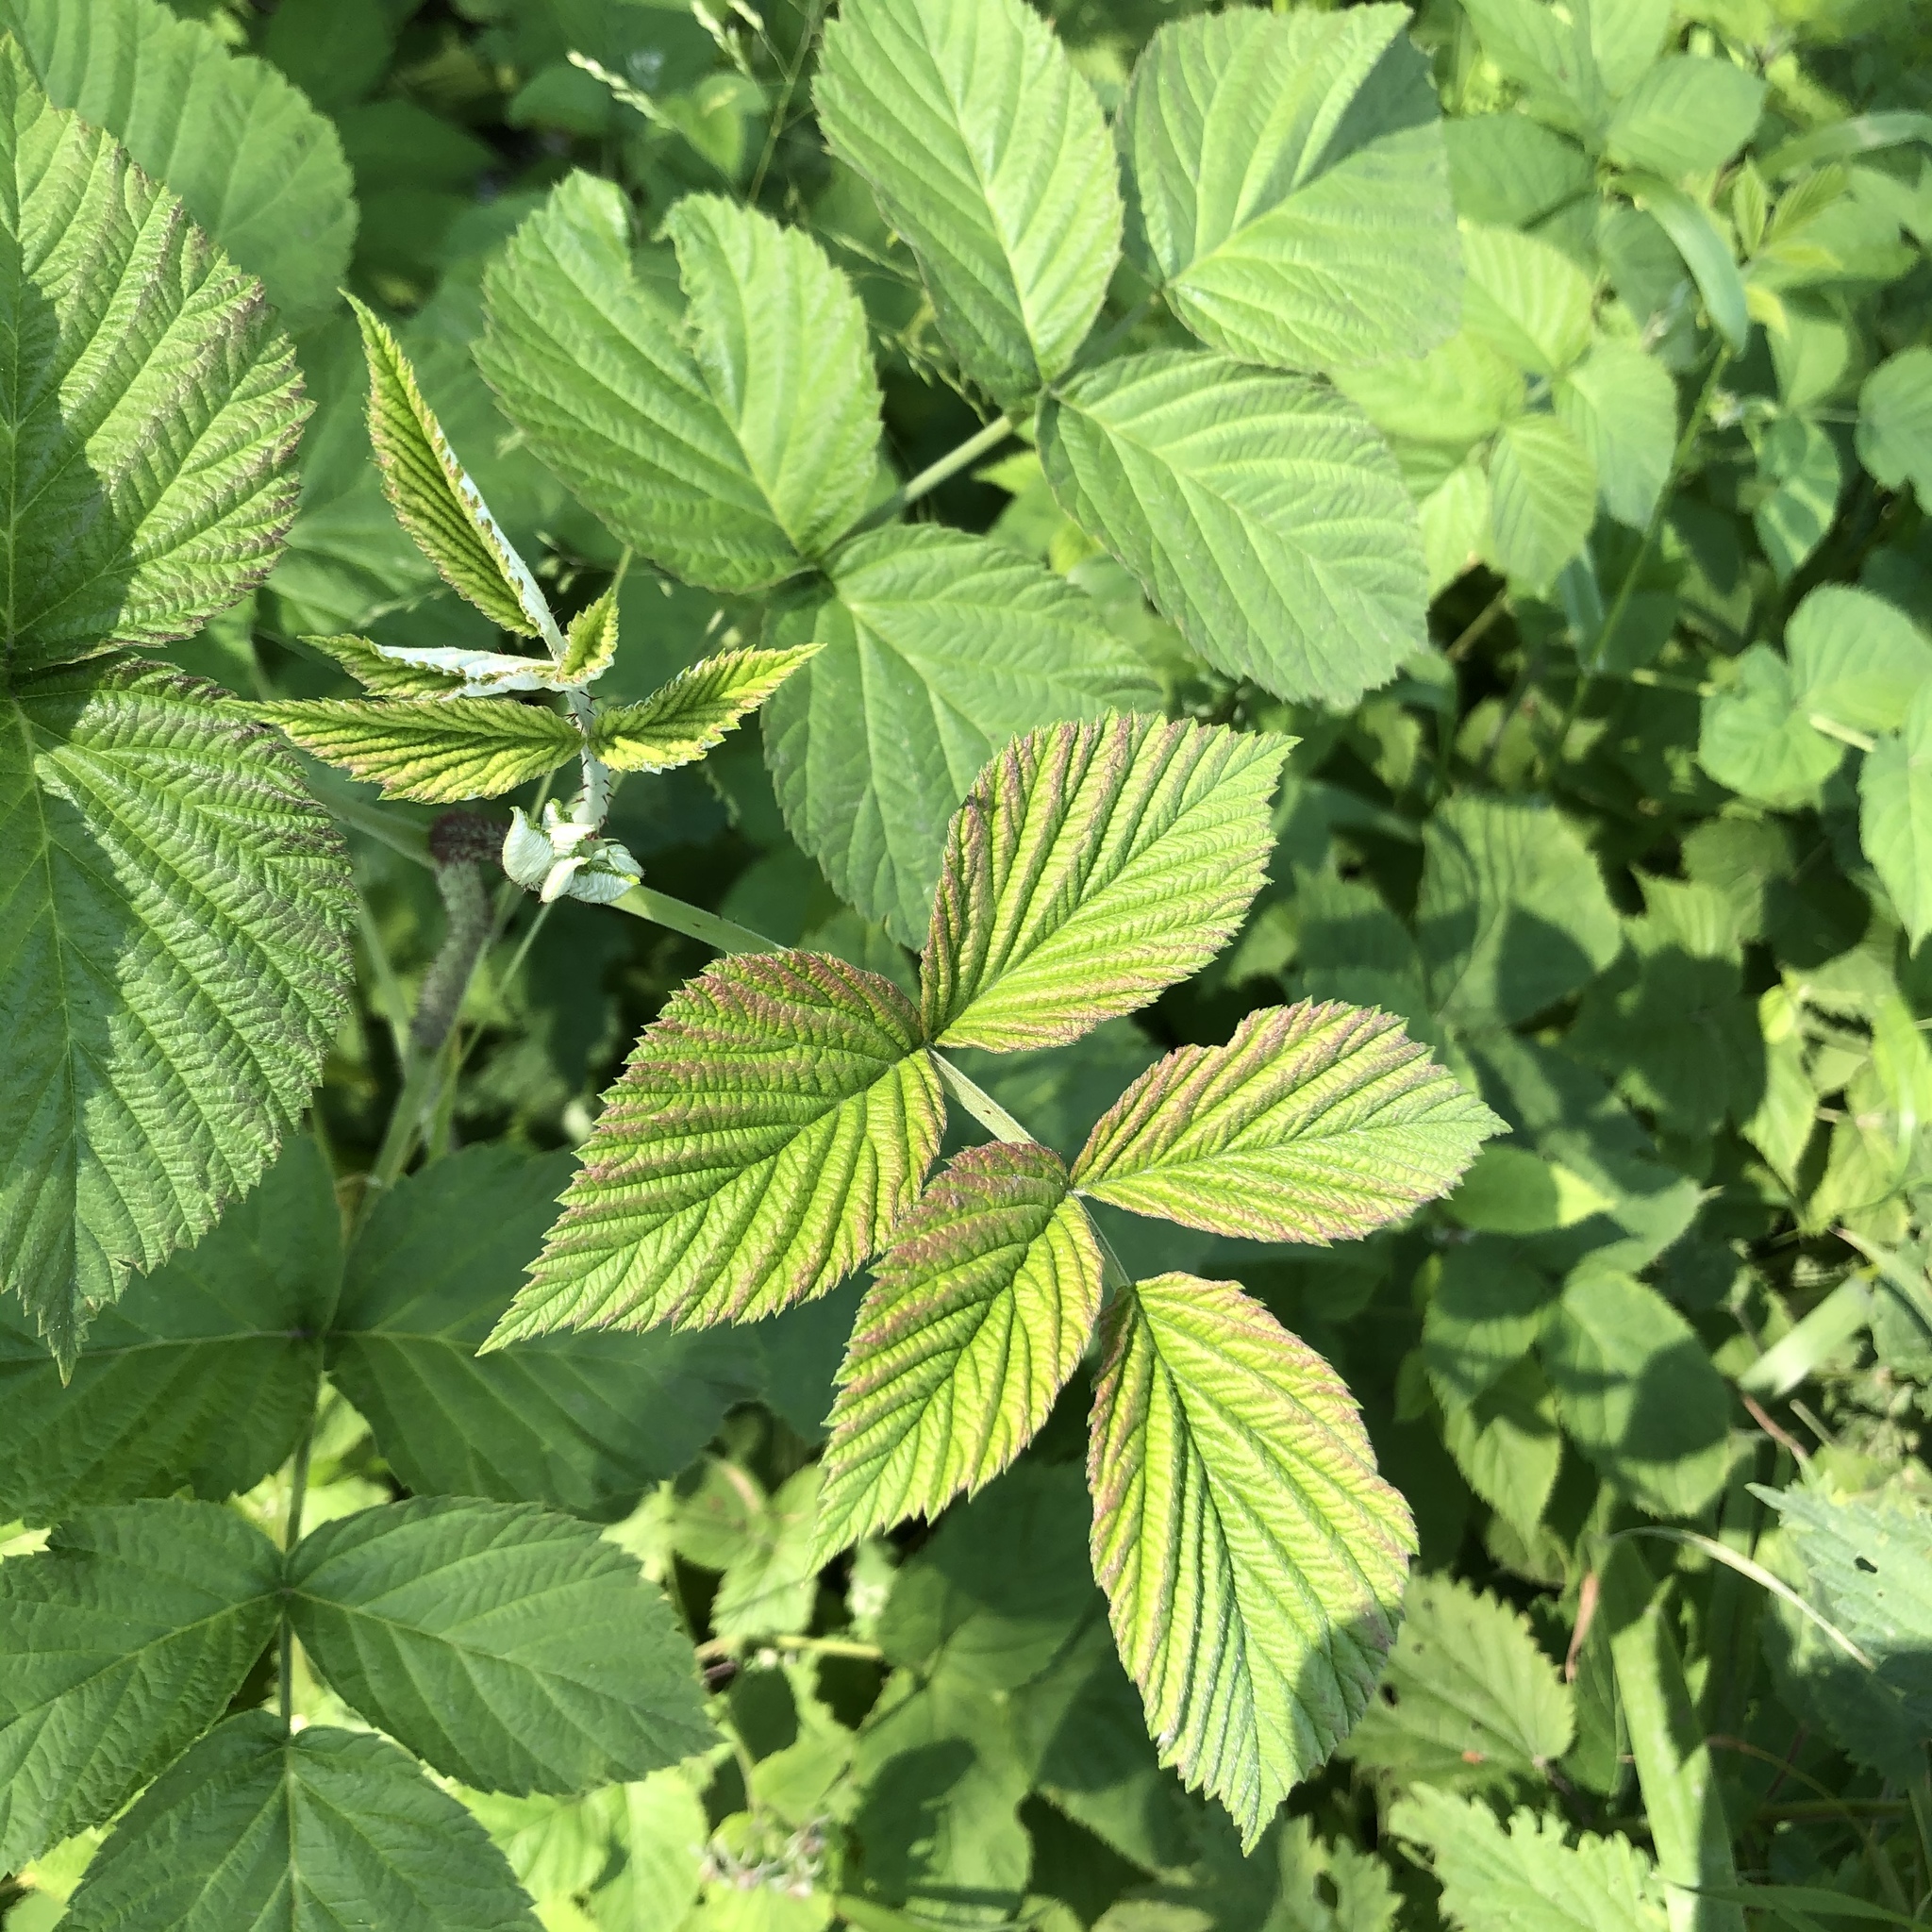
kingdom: Plantae
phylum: Tracheophyta
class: Magnoliopsida
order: Rosales
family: Rosaceae
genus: Rubus
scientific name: Rubus idaeus
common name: Raspberry
